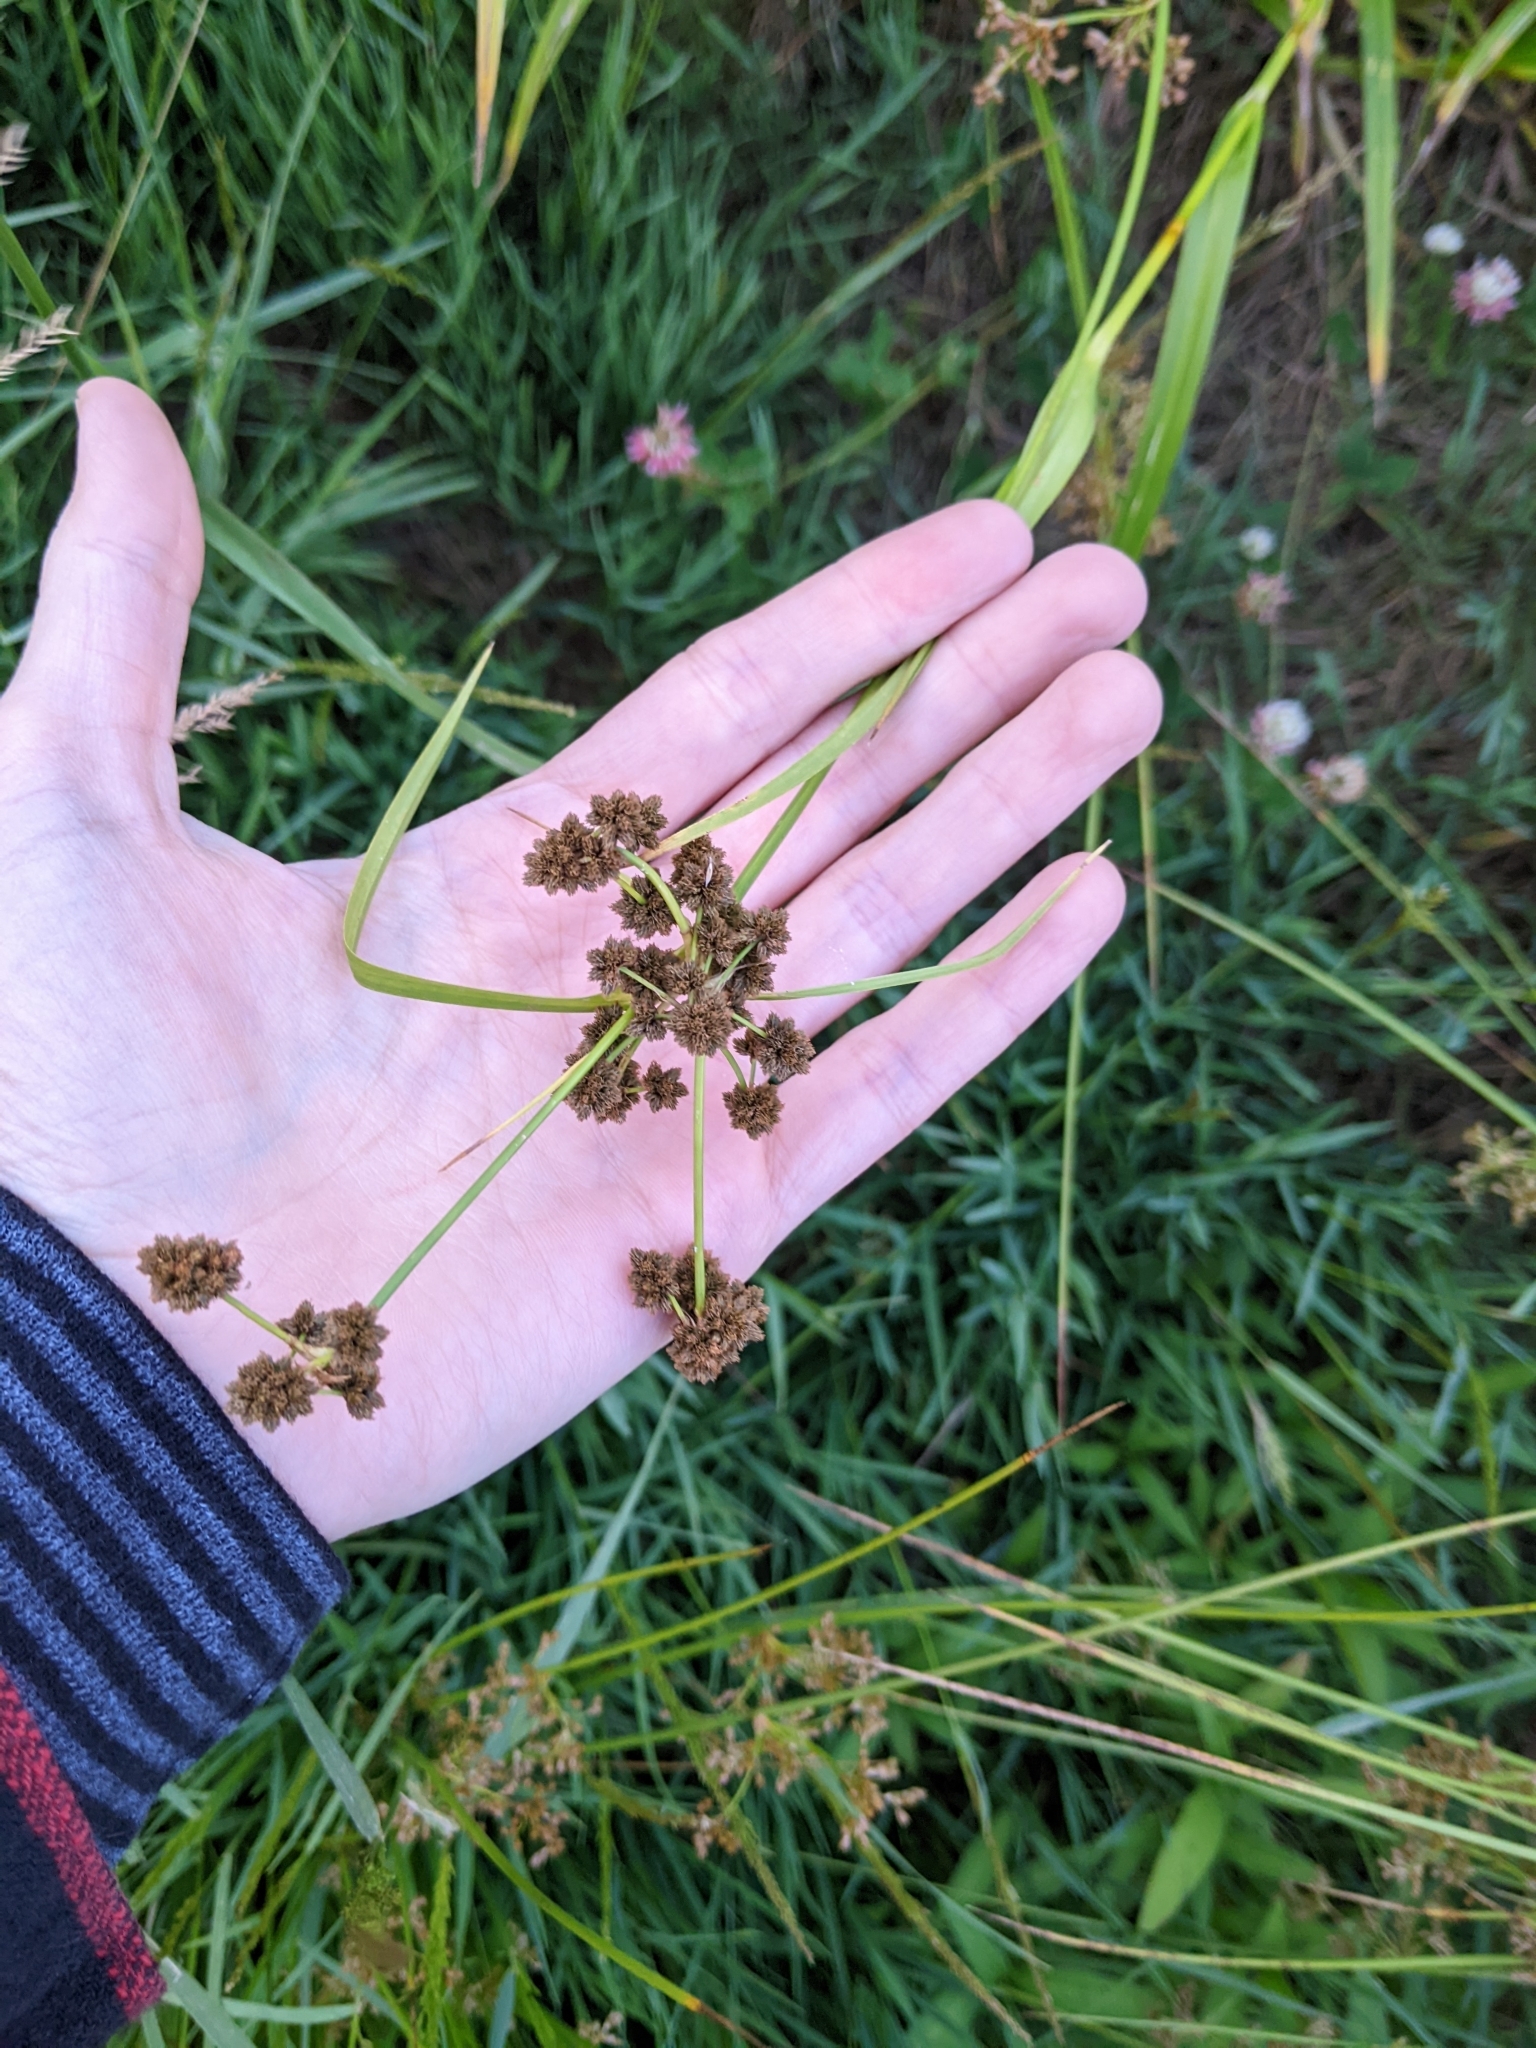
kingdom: Plantae
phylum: Tracheophyta
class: Liliopsida
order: Poales
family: Cyperaceae
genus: Scirpus
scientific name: Scirpus atrovirens
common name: Black bulrush
